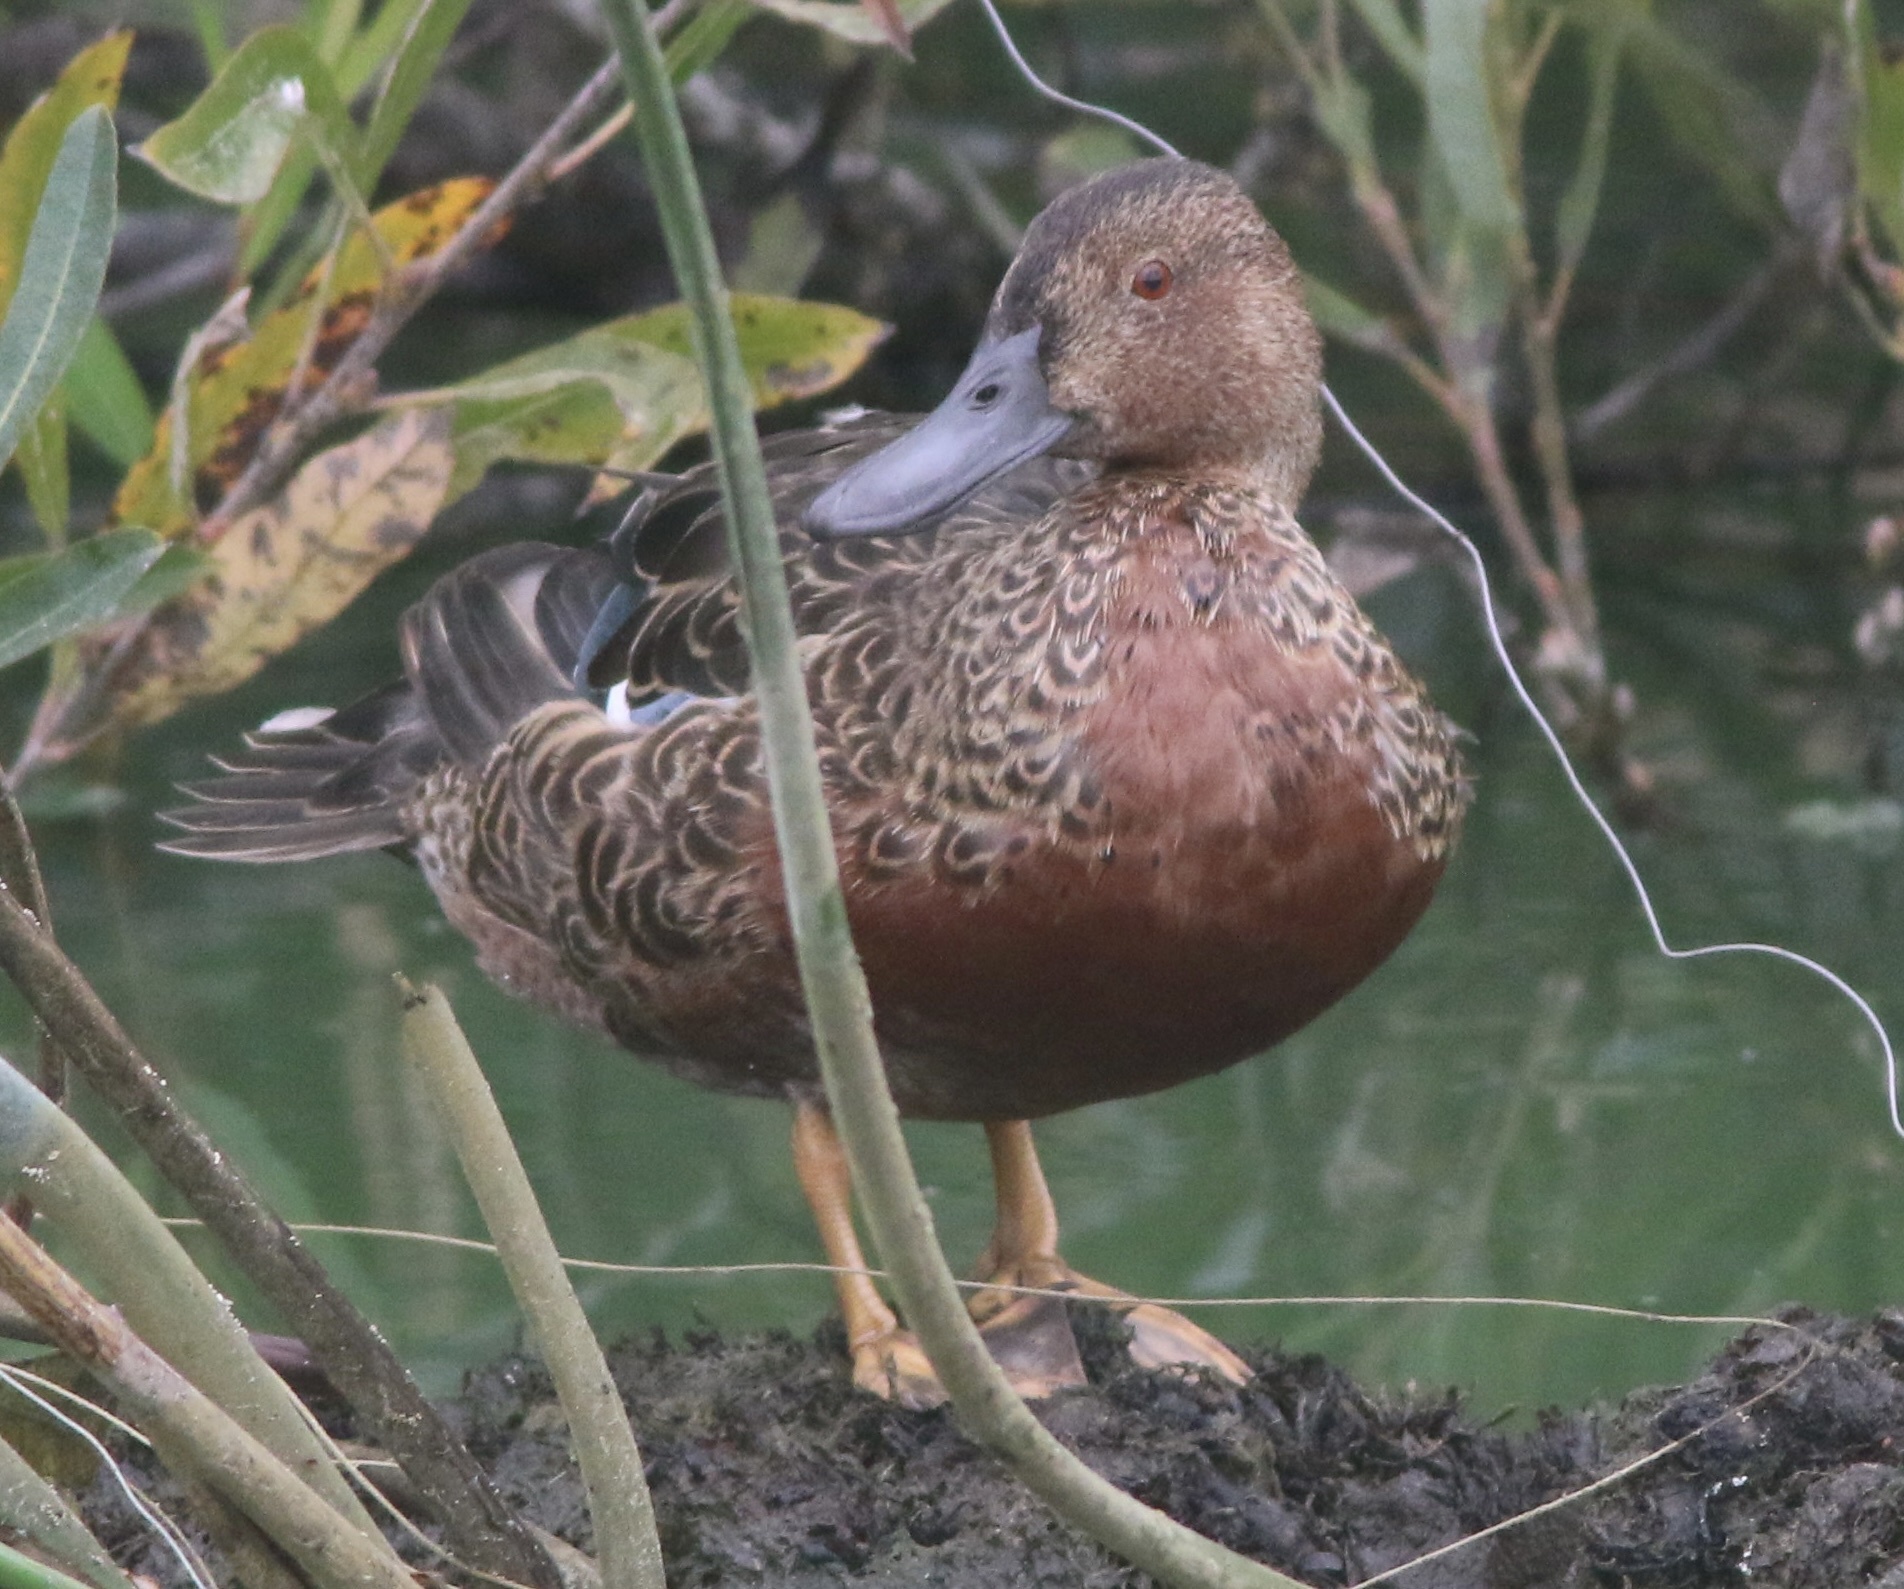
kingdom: Animalia
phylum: Chordata
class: Aves
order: Anseriformes
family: Anatidae
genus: Spatula
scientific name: Spatula cyanoptera
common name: Cinnamon teal
